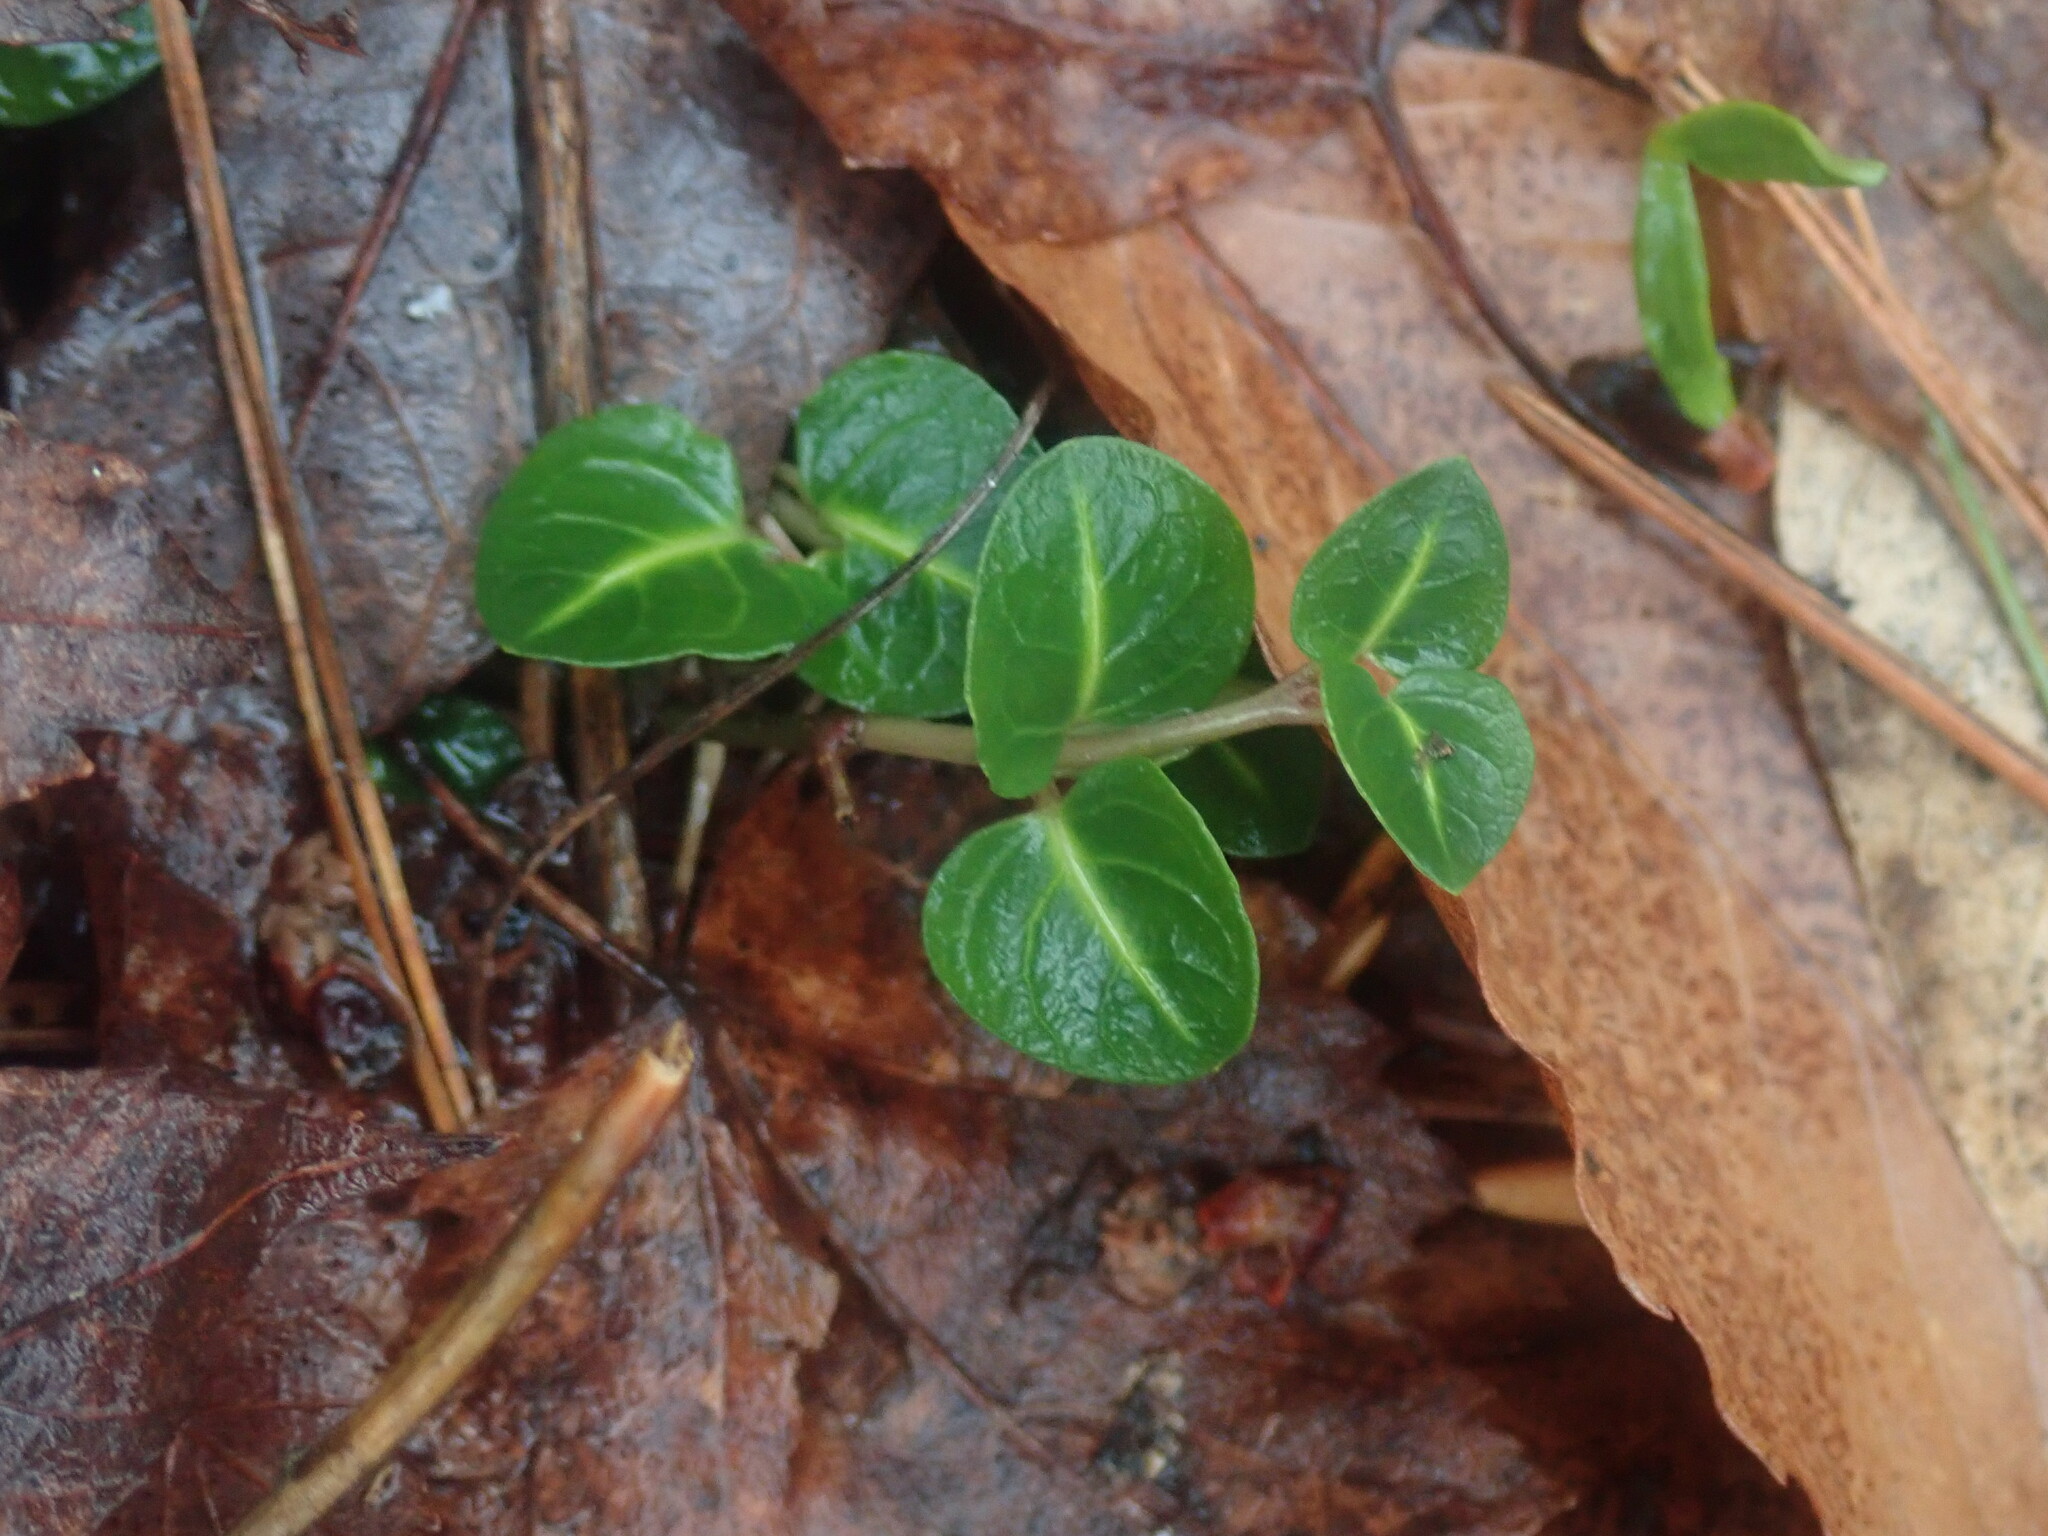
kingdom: Plantae
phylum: Tracheophyta
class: Magnoliopsida
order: Gentianales
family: Rubiaceae
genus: Mitchella
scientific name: Mitchella repens
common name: Partridge-berry
